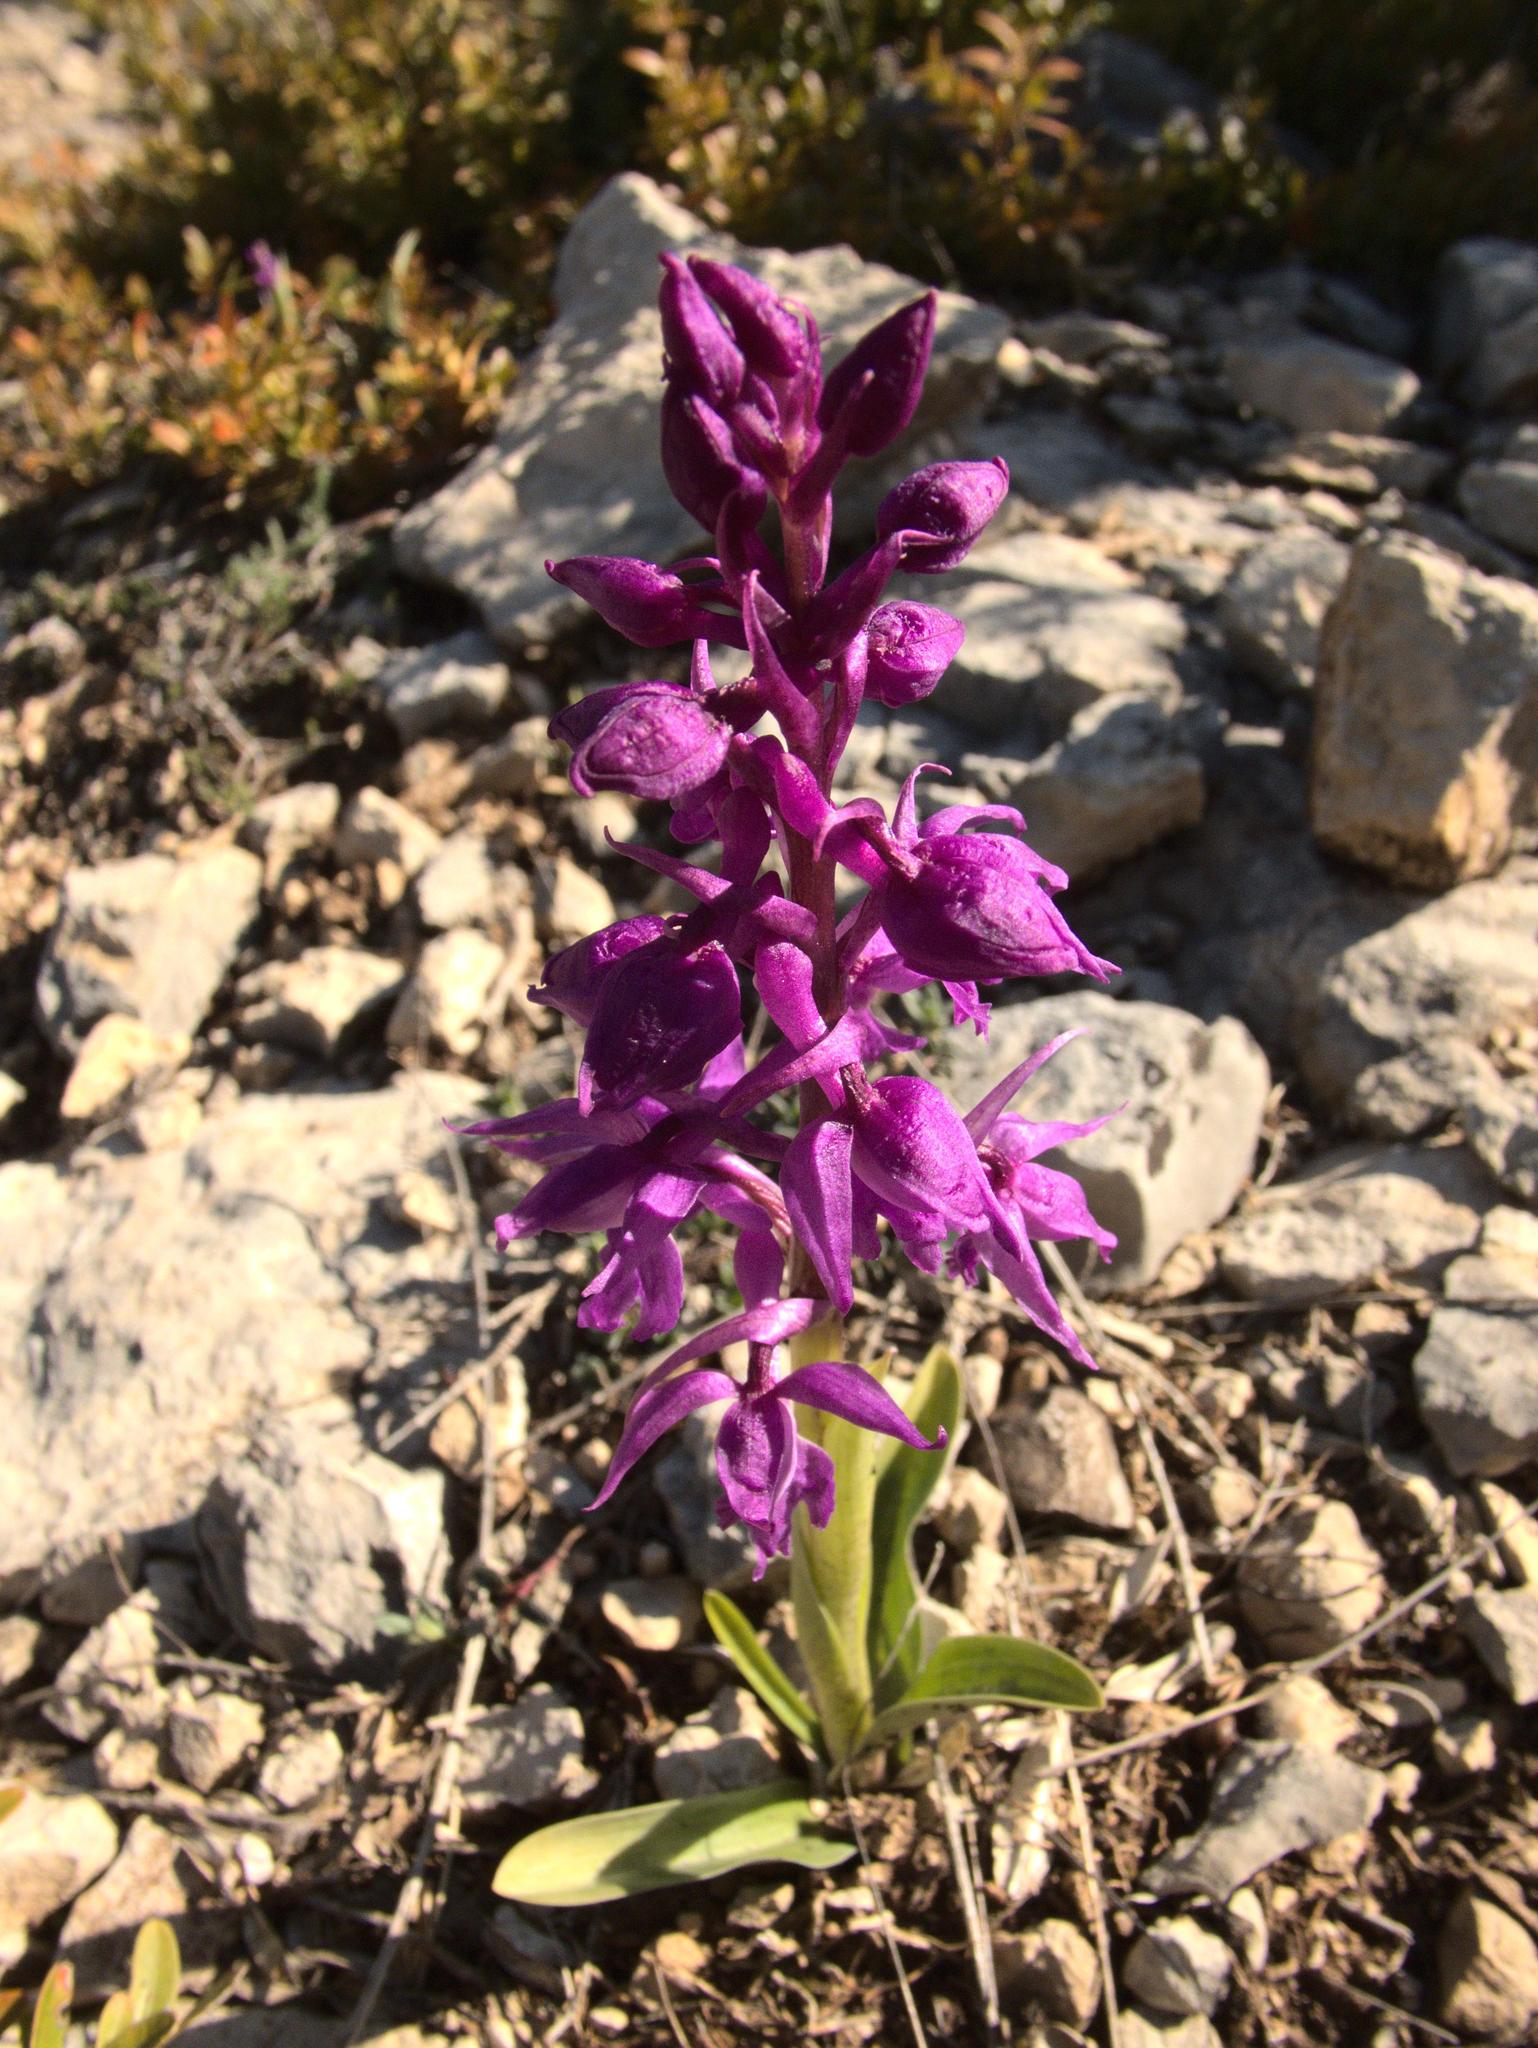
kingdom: Plantae
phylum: Tracheophyta
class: Liliopsida
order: Asparagales
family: Orchidaceae
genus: Orchis
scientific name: Orchis mascula
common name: Early-purple orchid
